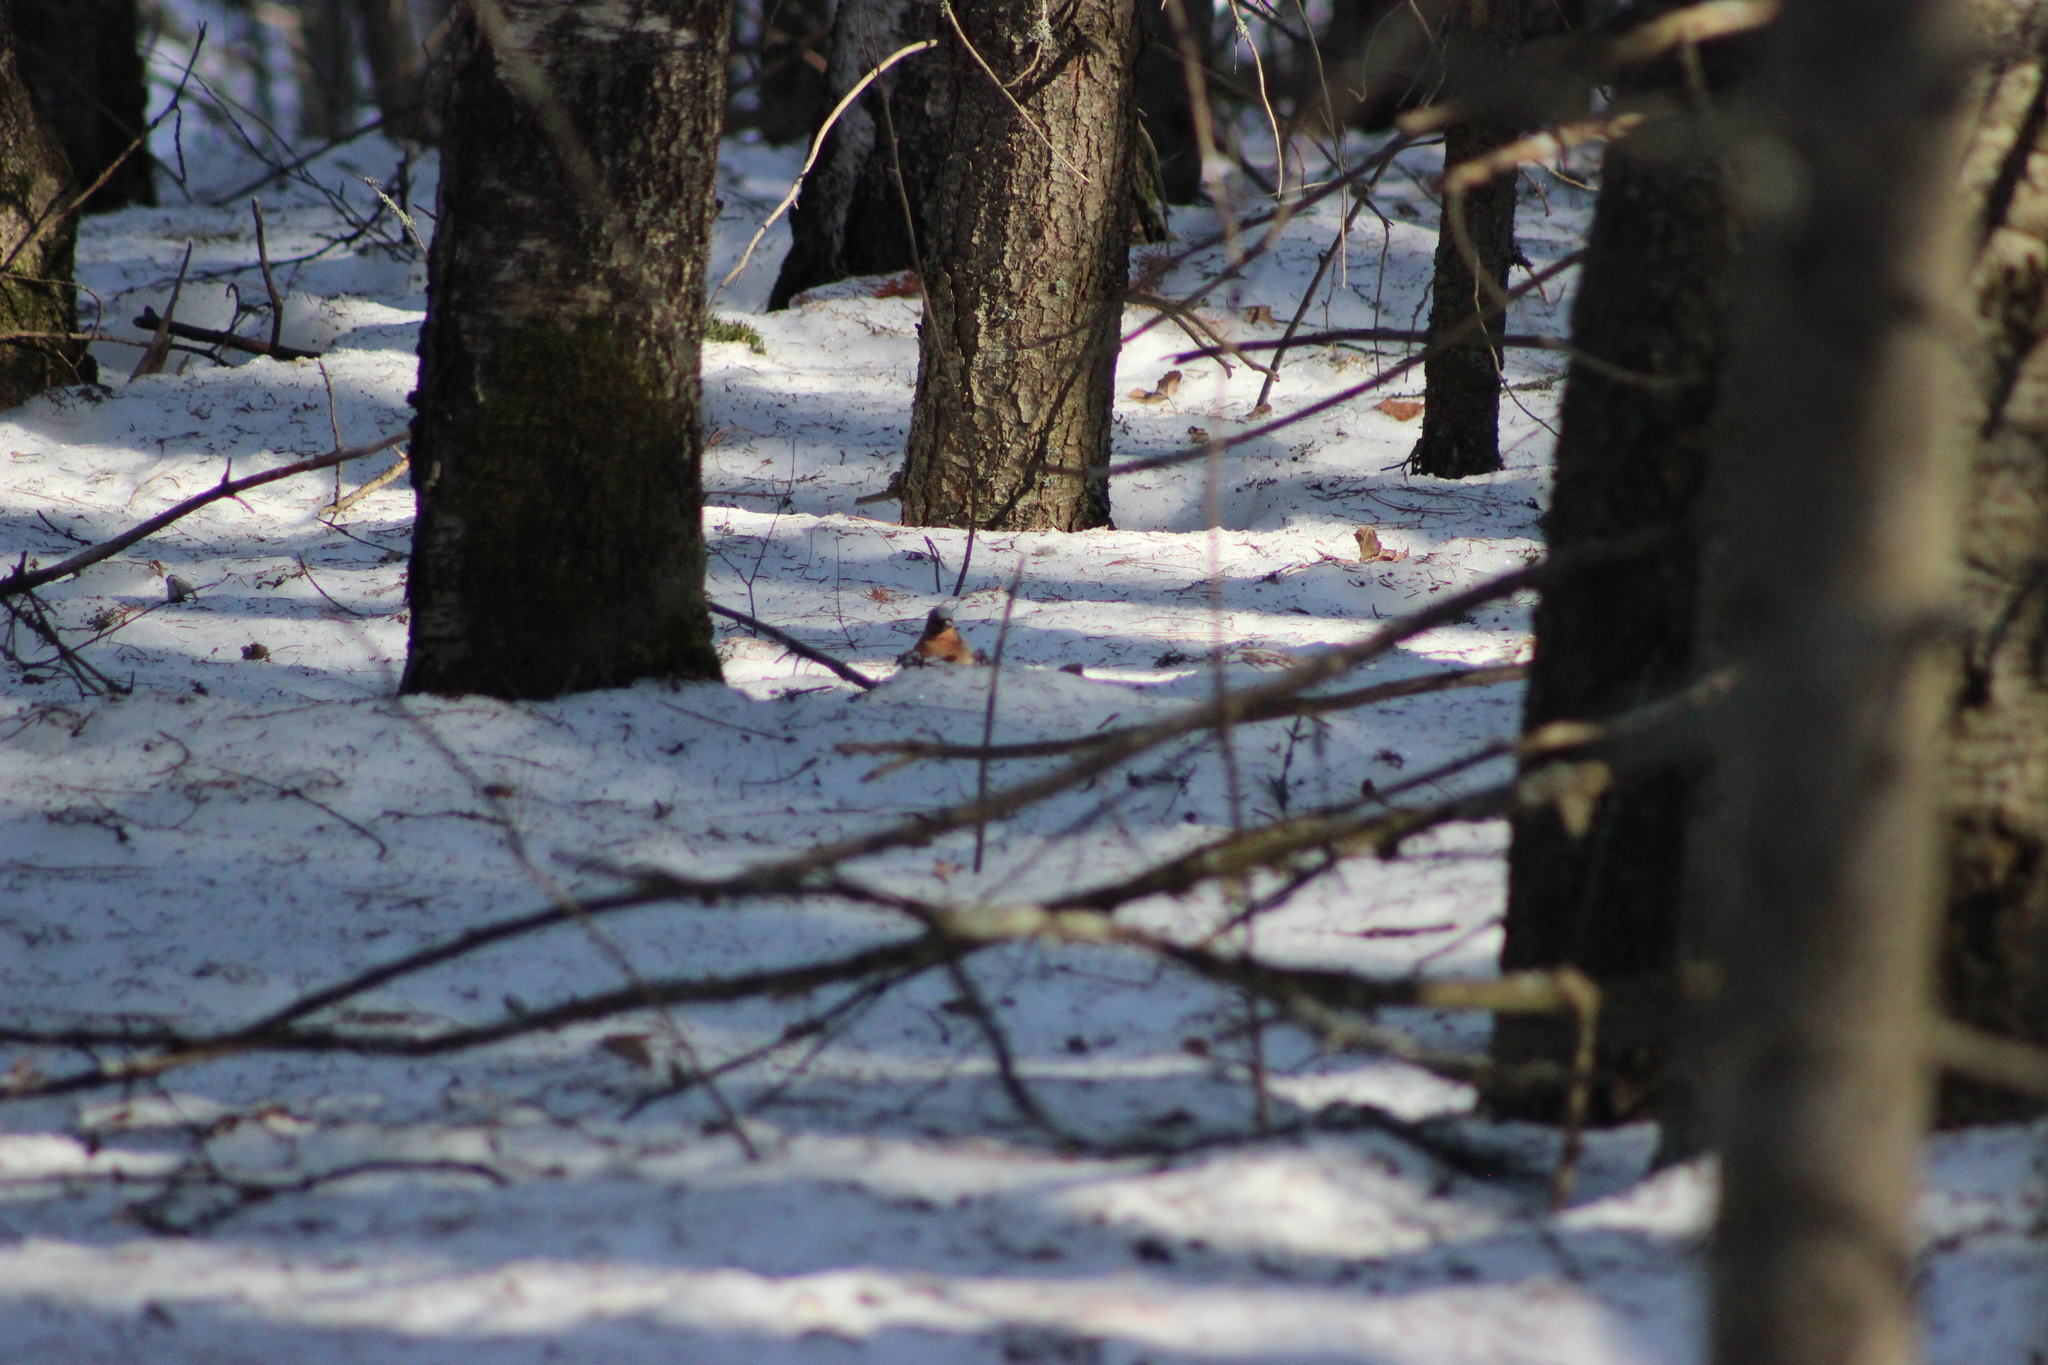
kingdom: Animalia
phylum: Chordata
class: Aves
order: Passeriformes
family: Fringillidae
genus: Fringilla
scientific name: Fringilla coelebs
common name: Common chaffinch
